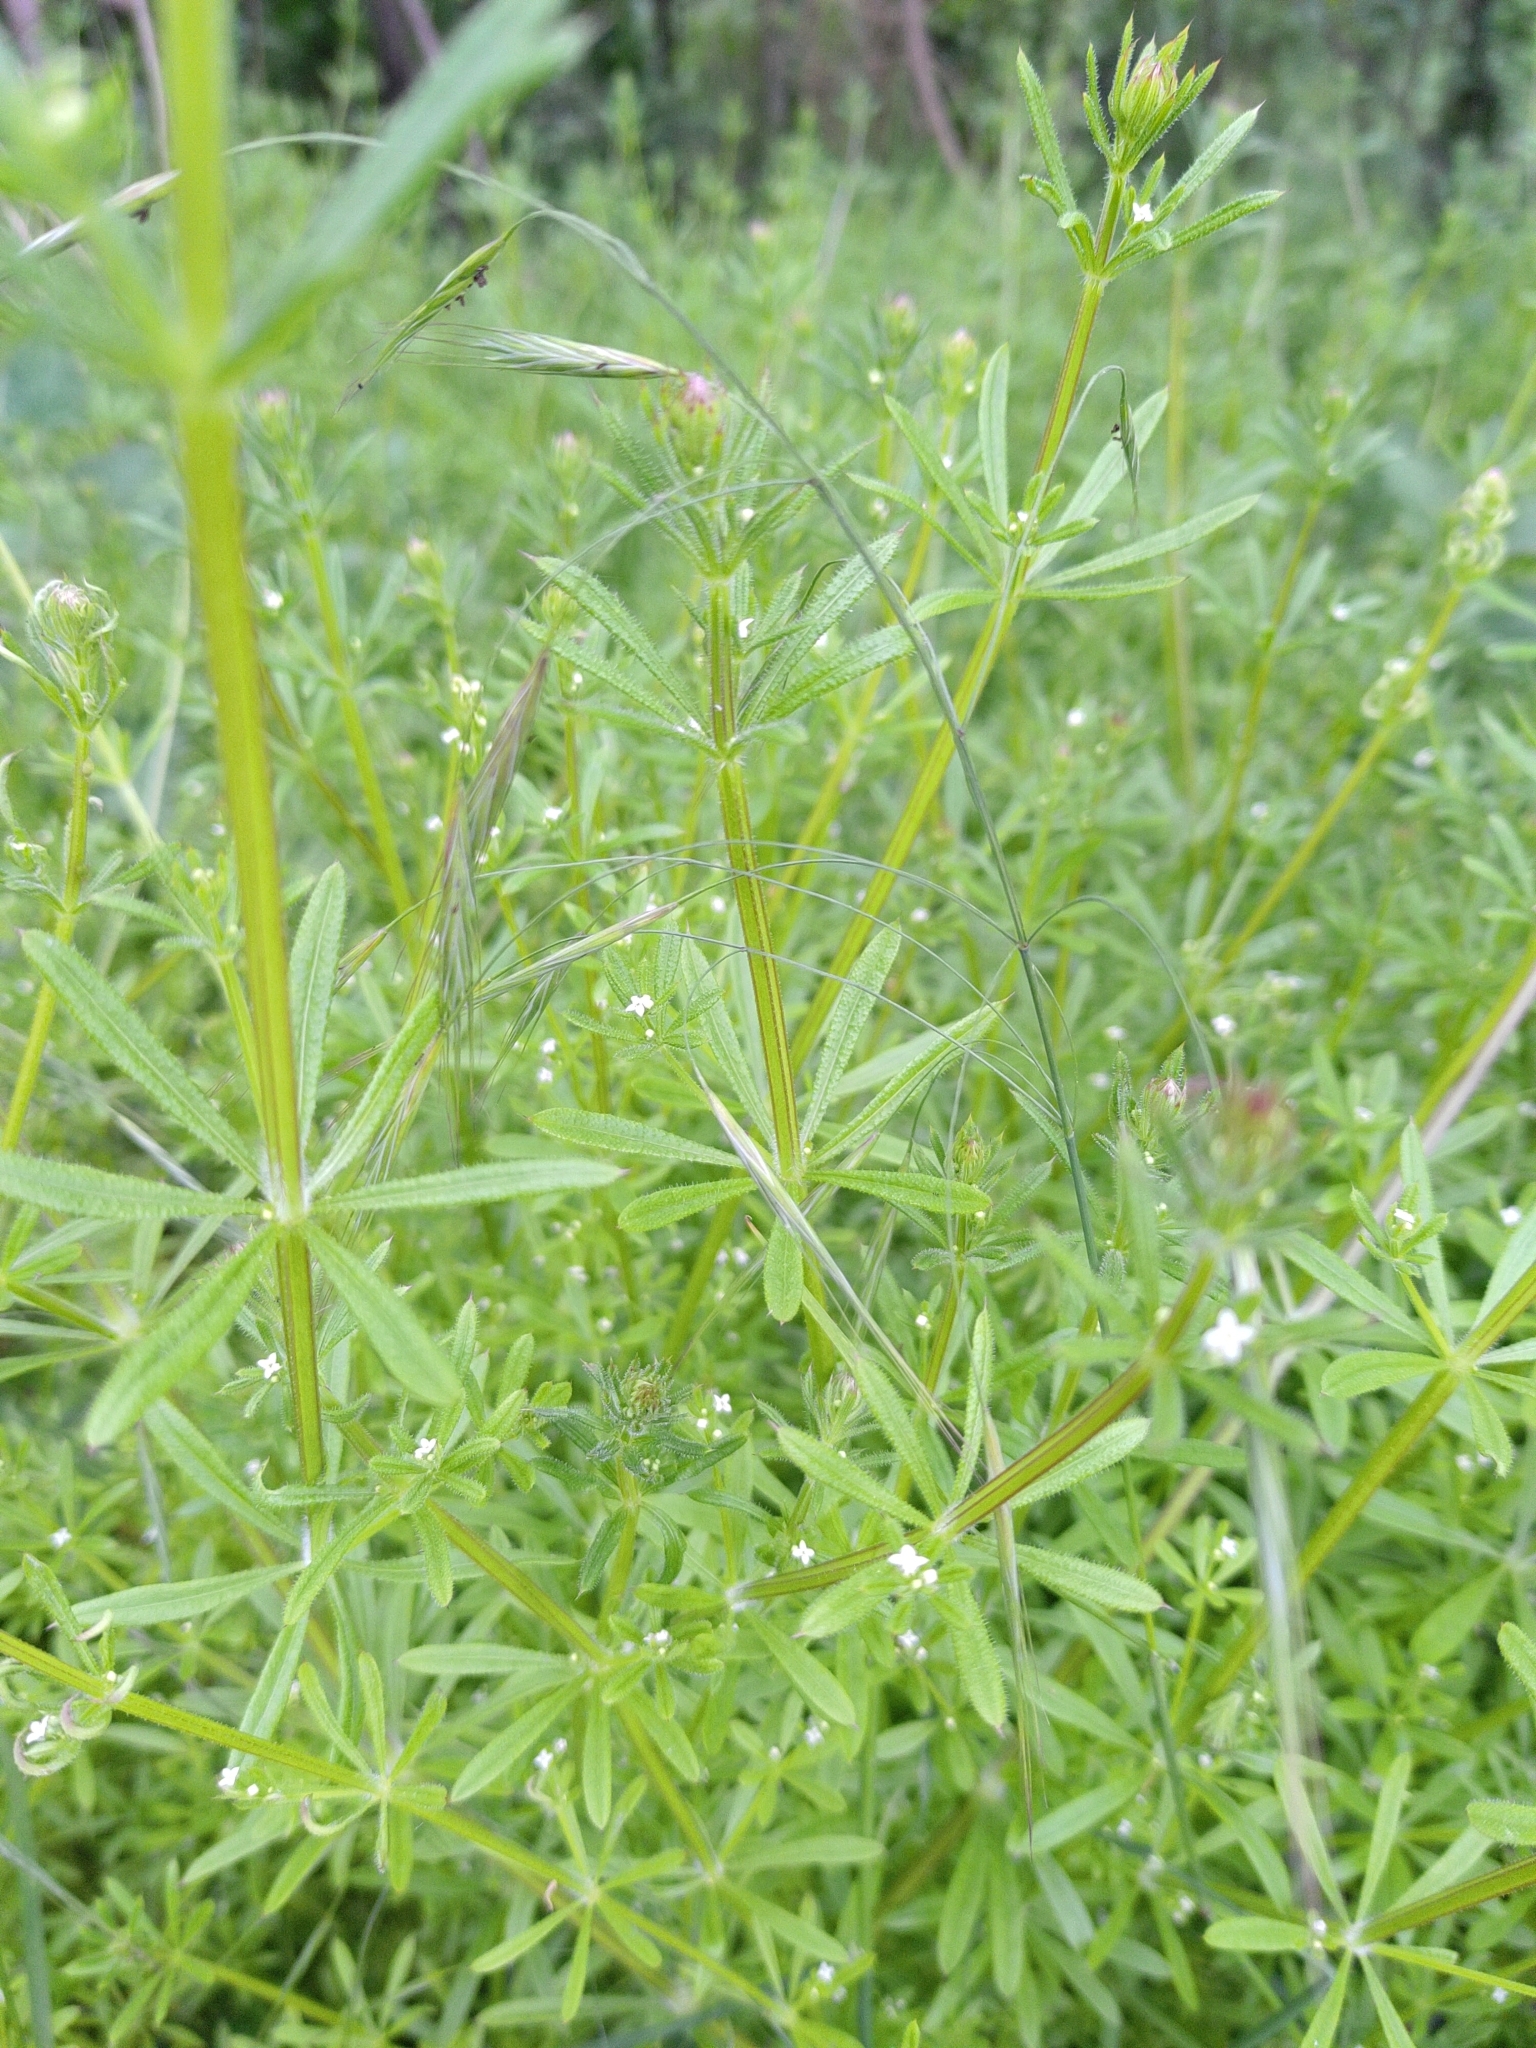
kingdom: Plantae
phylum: Tracheophyta
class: Magnoliopsida
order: Gentianales
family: Rubiaceae
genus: Galium
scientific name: Galium aparine
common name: Cleavers
